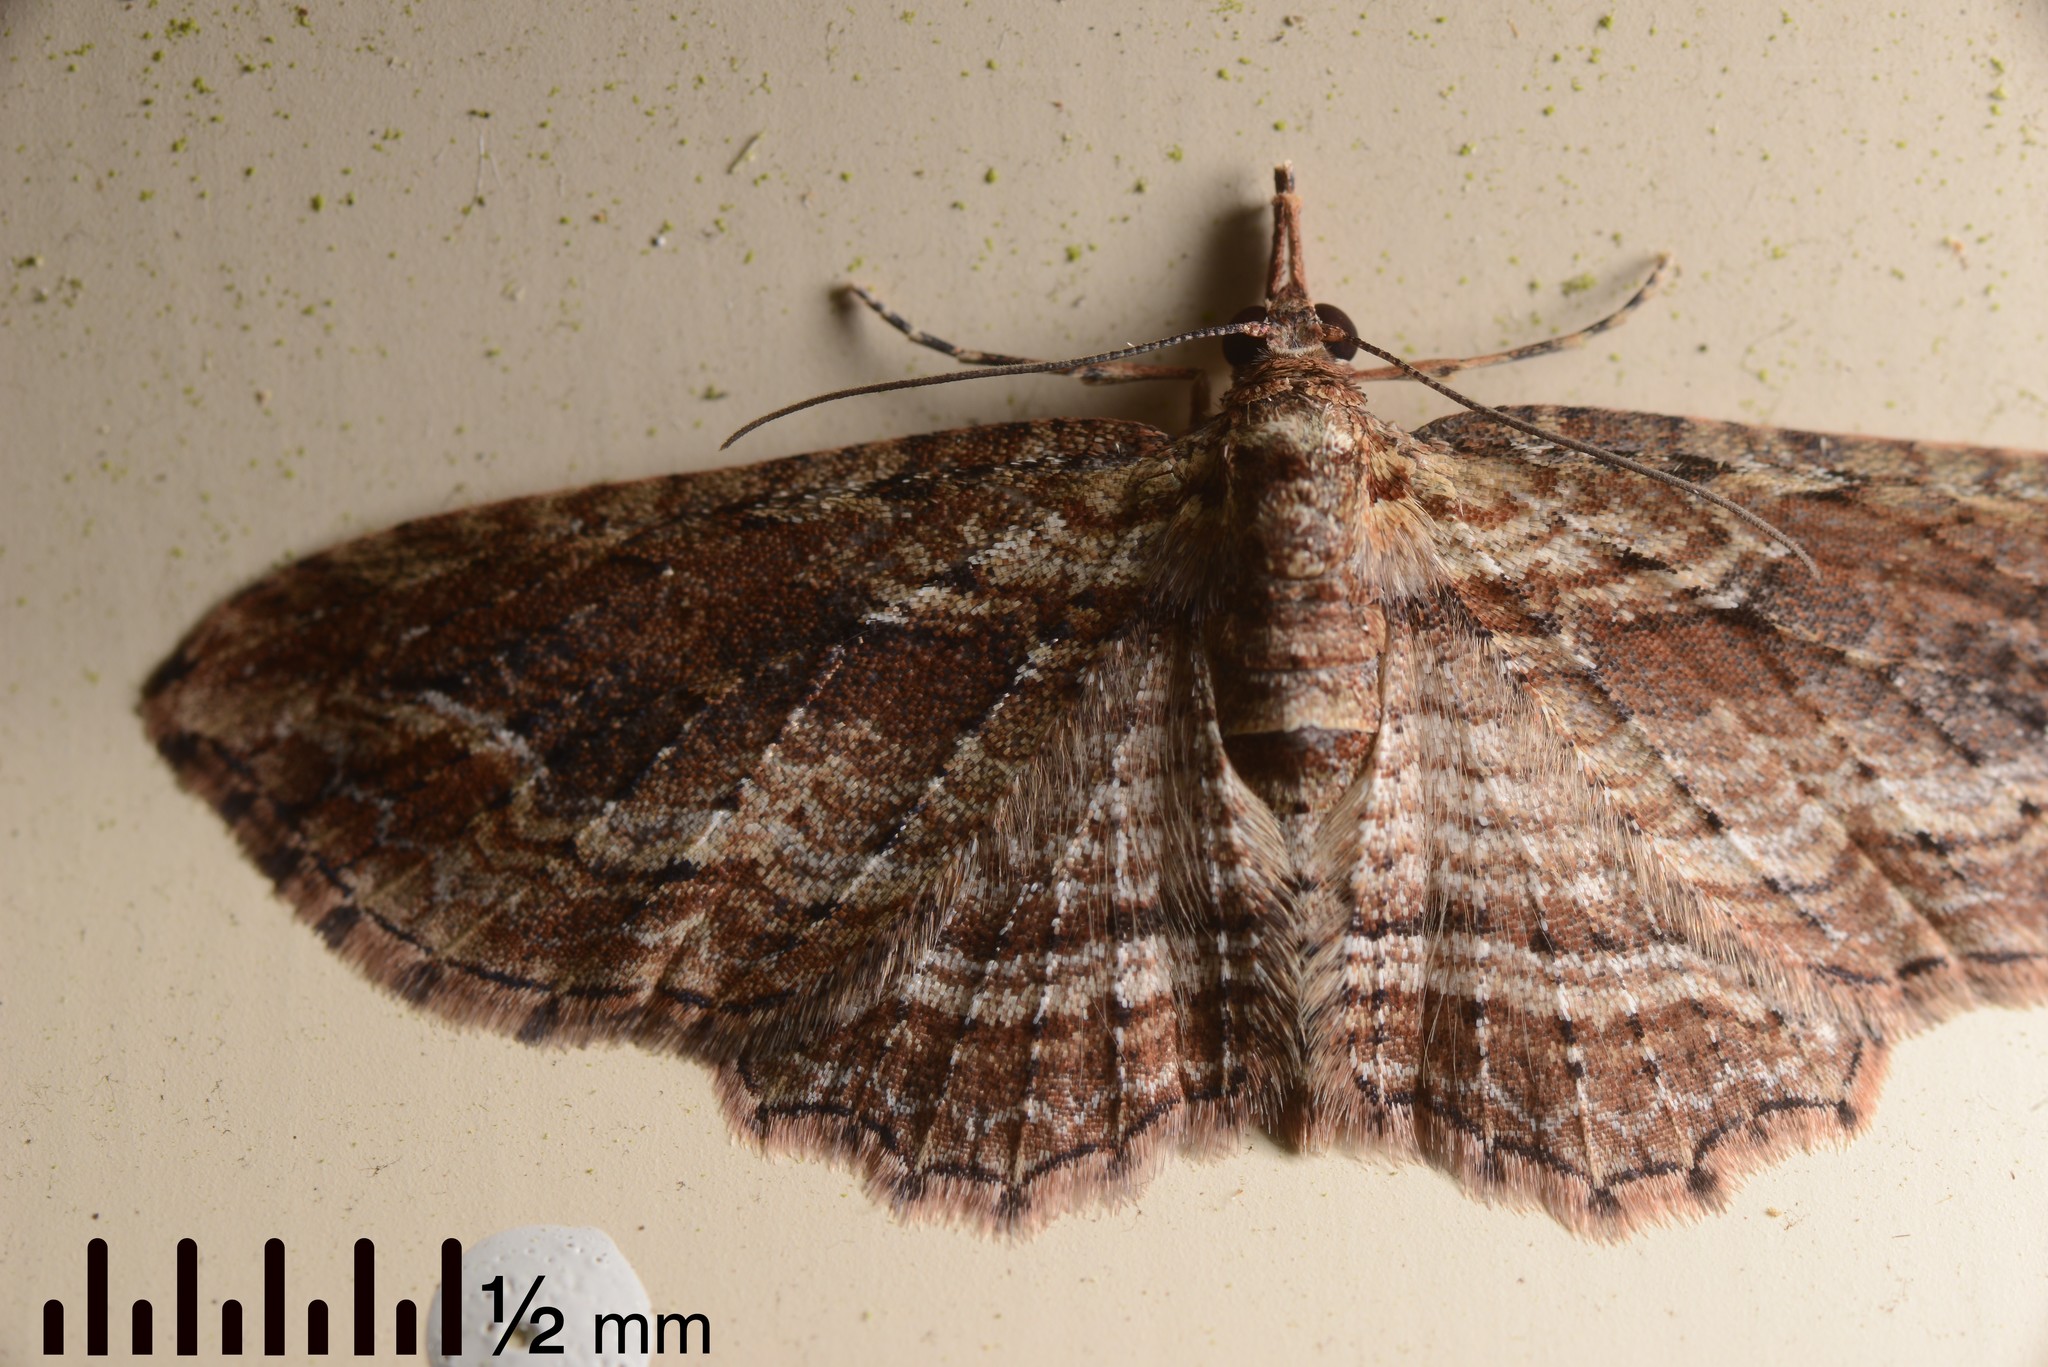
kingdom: Animalia
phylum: Arthropoda
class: Insecta
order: Lepidoptera
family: Geometridae
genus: Chloroclystis
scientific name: Chloroclystis filata
